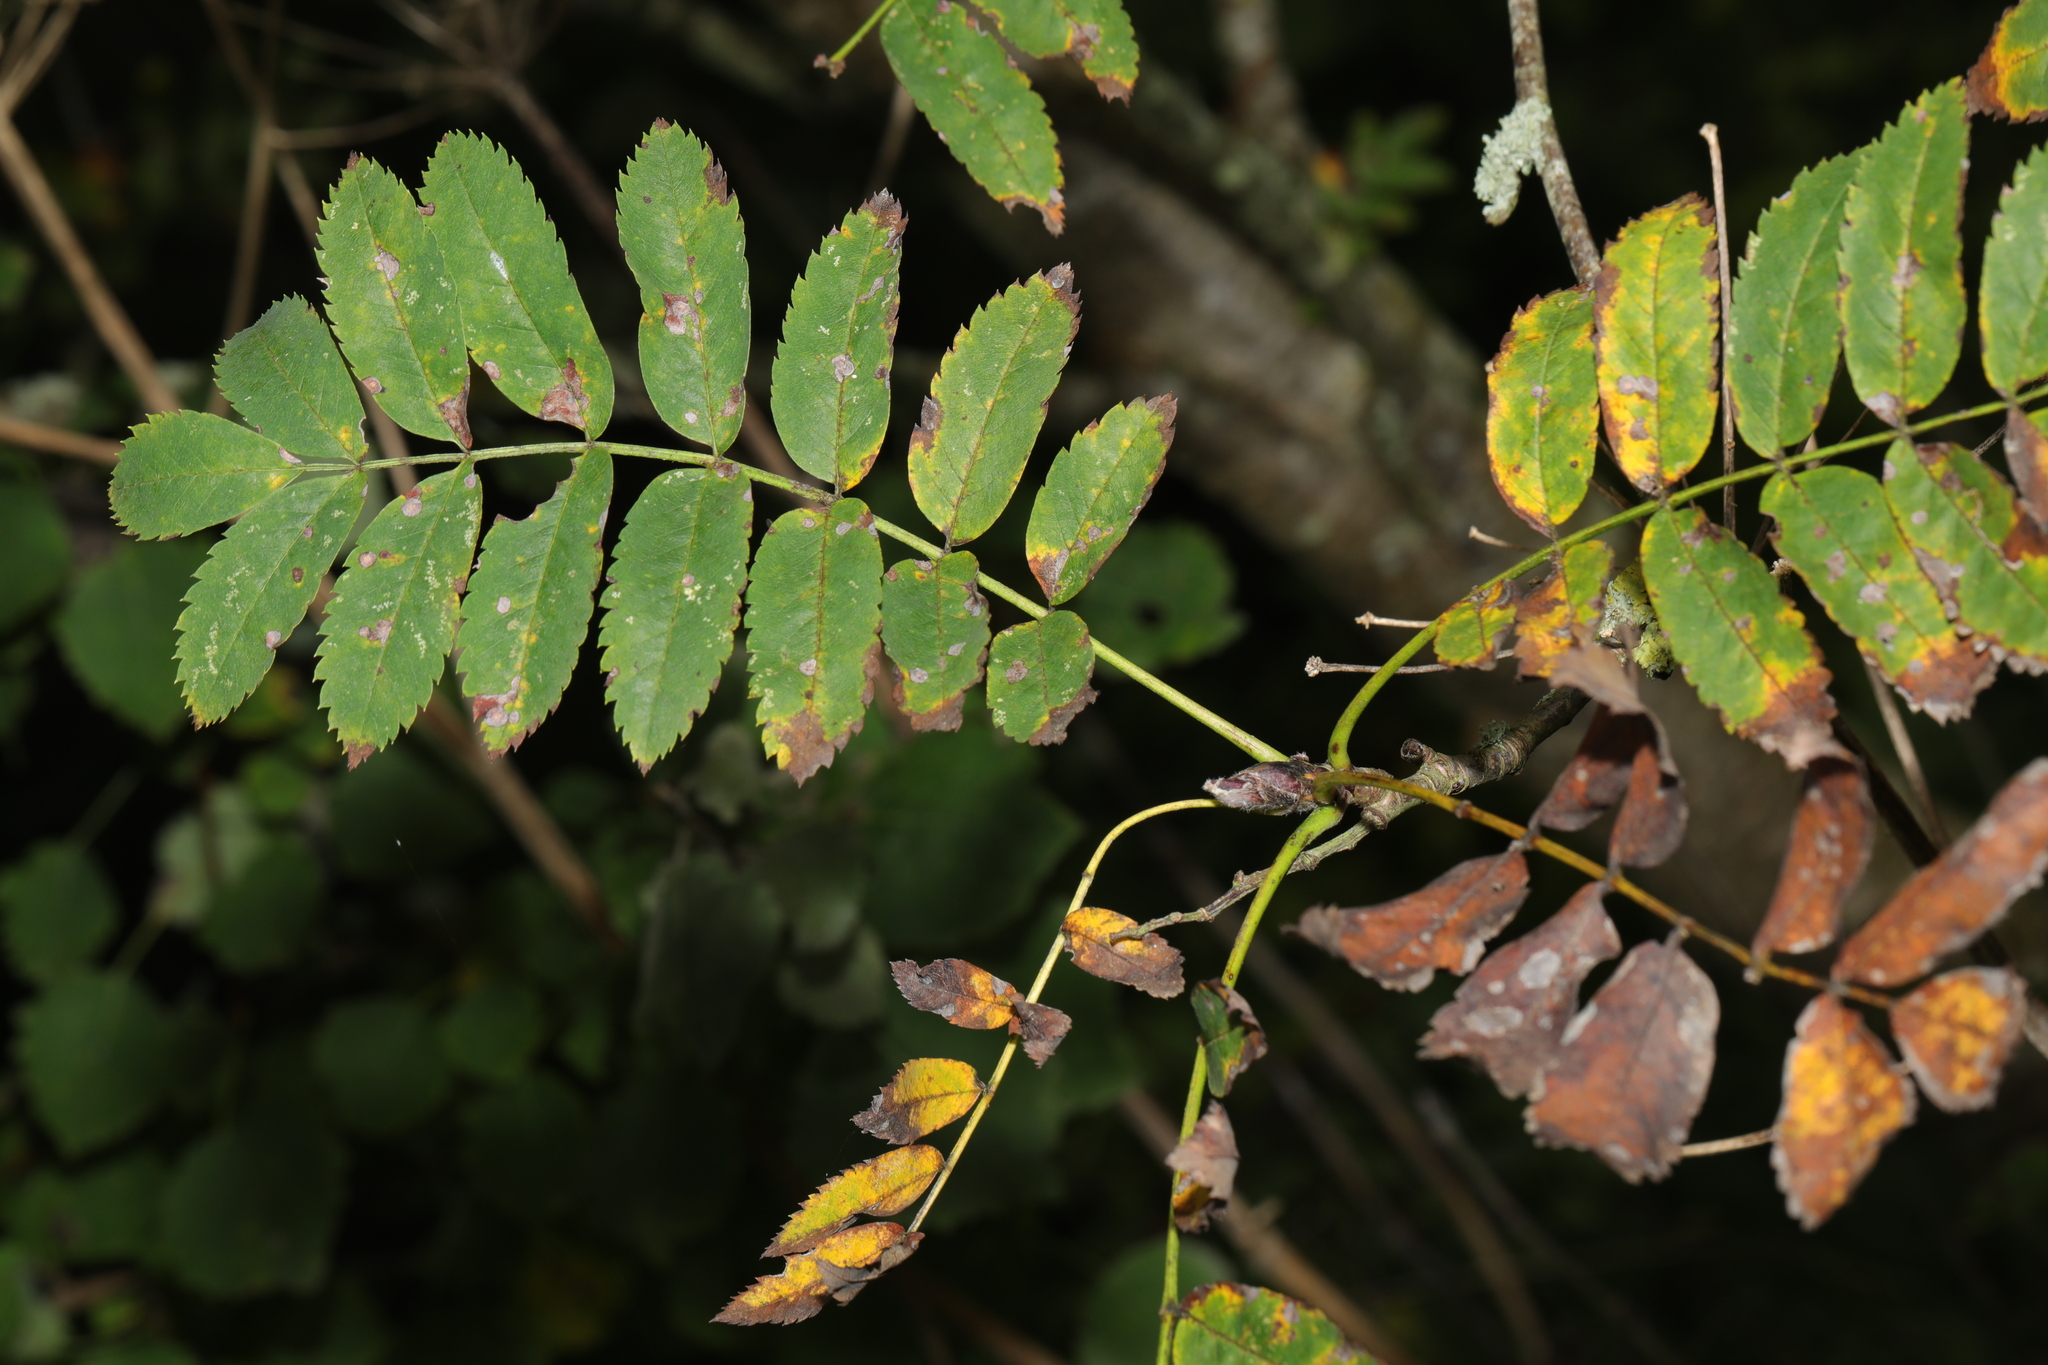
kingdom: Plantae
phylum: Tracheophyta
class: Magnoliopsida
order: Rosales
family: Rosaceae
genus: Sorbus
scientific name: Sorbus aucuparia
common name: Rowan
